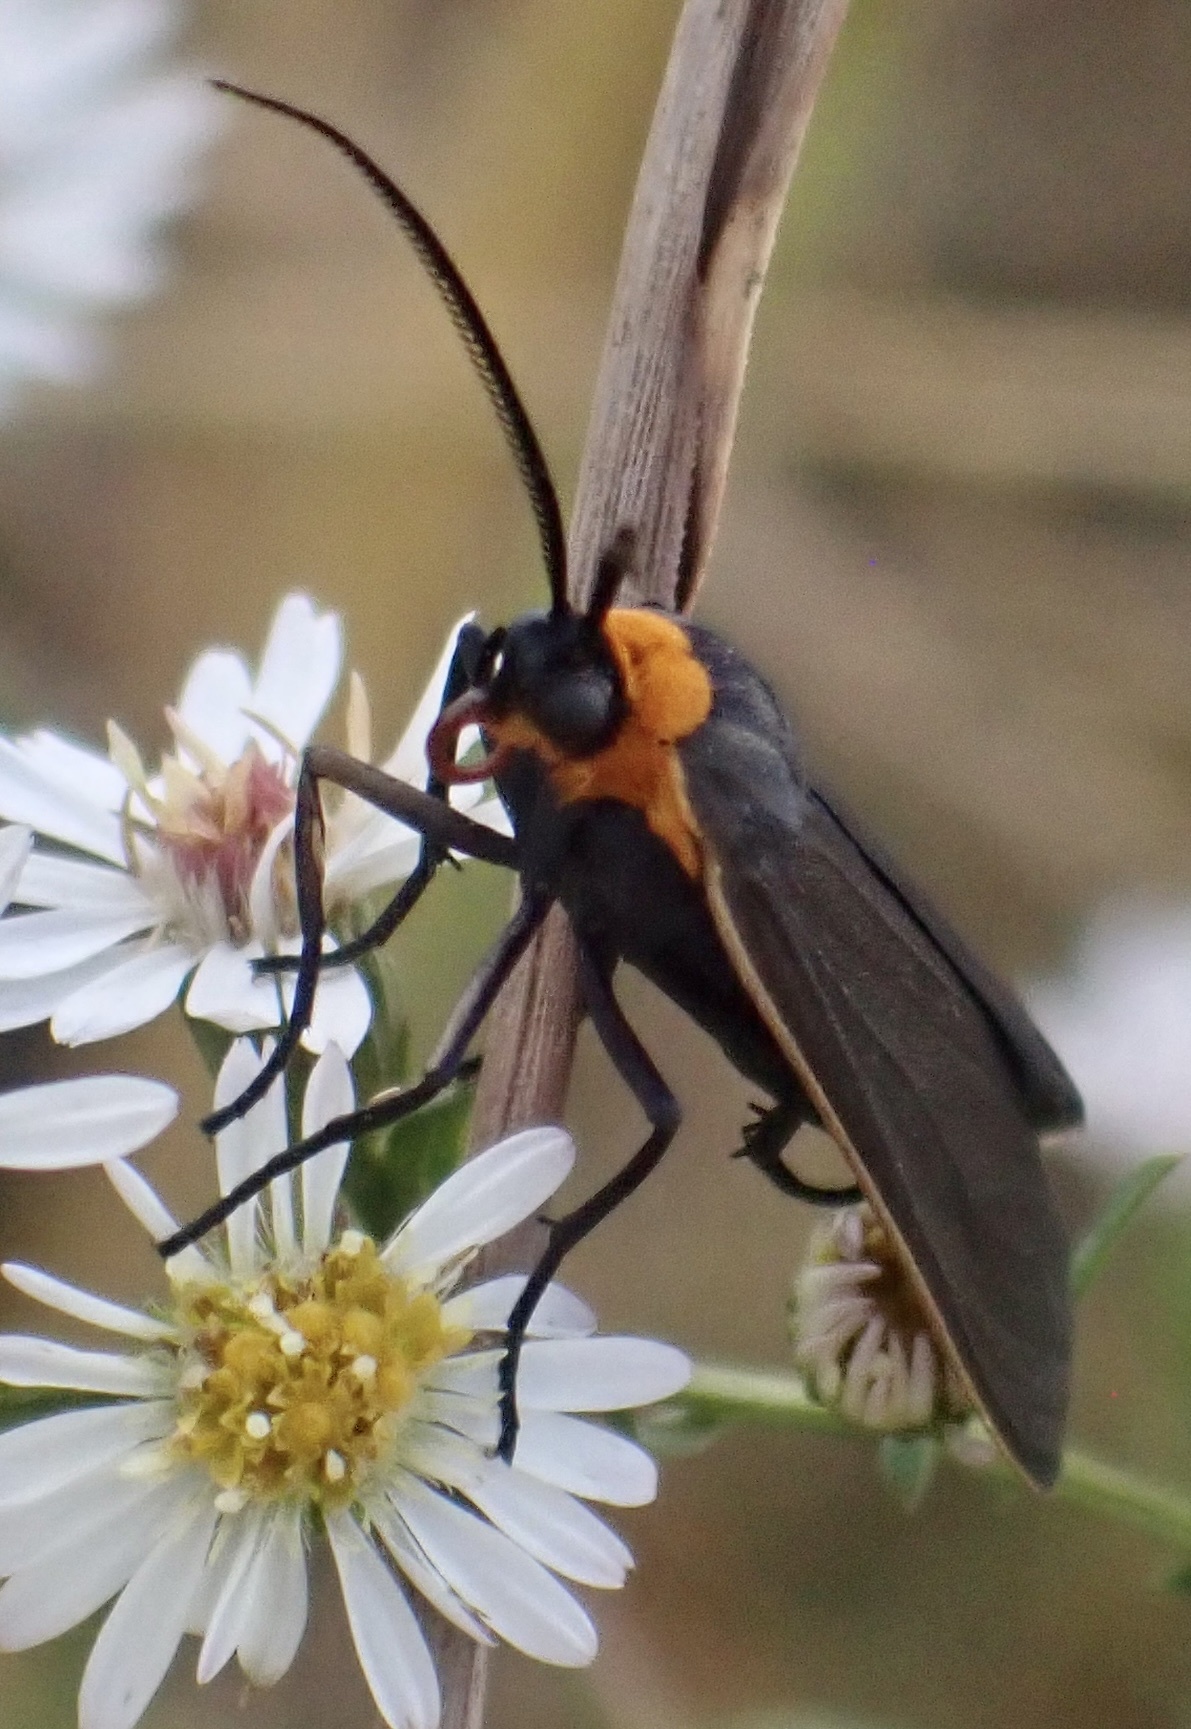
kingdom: Animalia
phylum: Arthropoda
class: Insecta
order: Lepidoptera
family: Erebidae
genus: Cisseps
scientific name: Cisseps fulvicollis
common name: Yellow-collared scape moth
